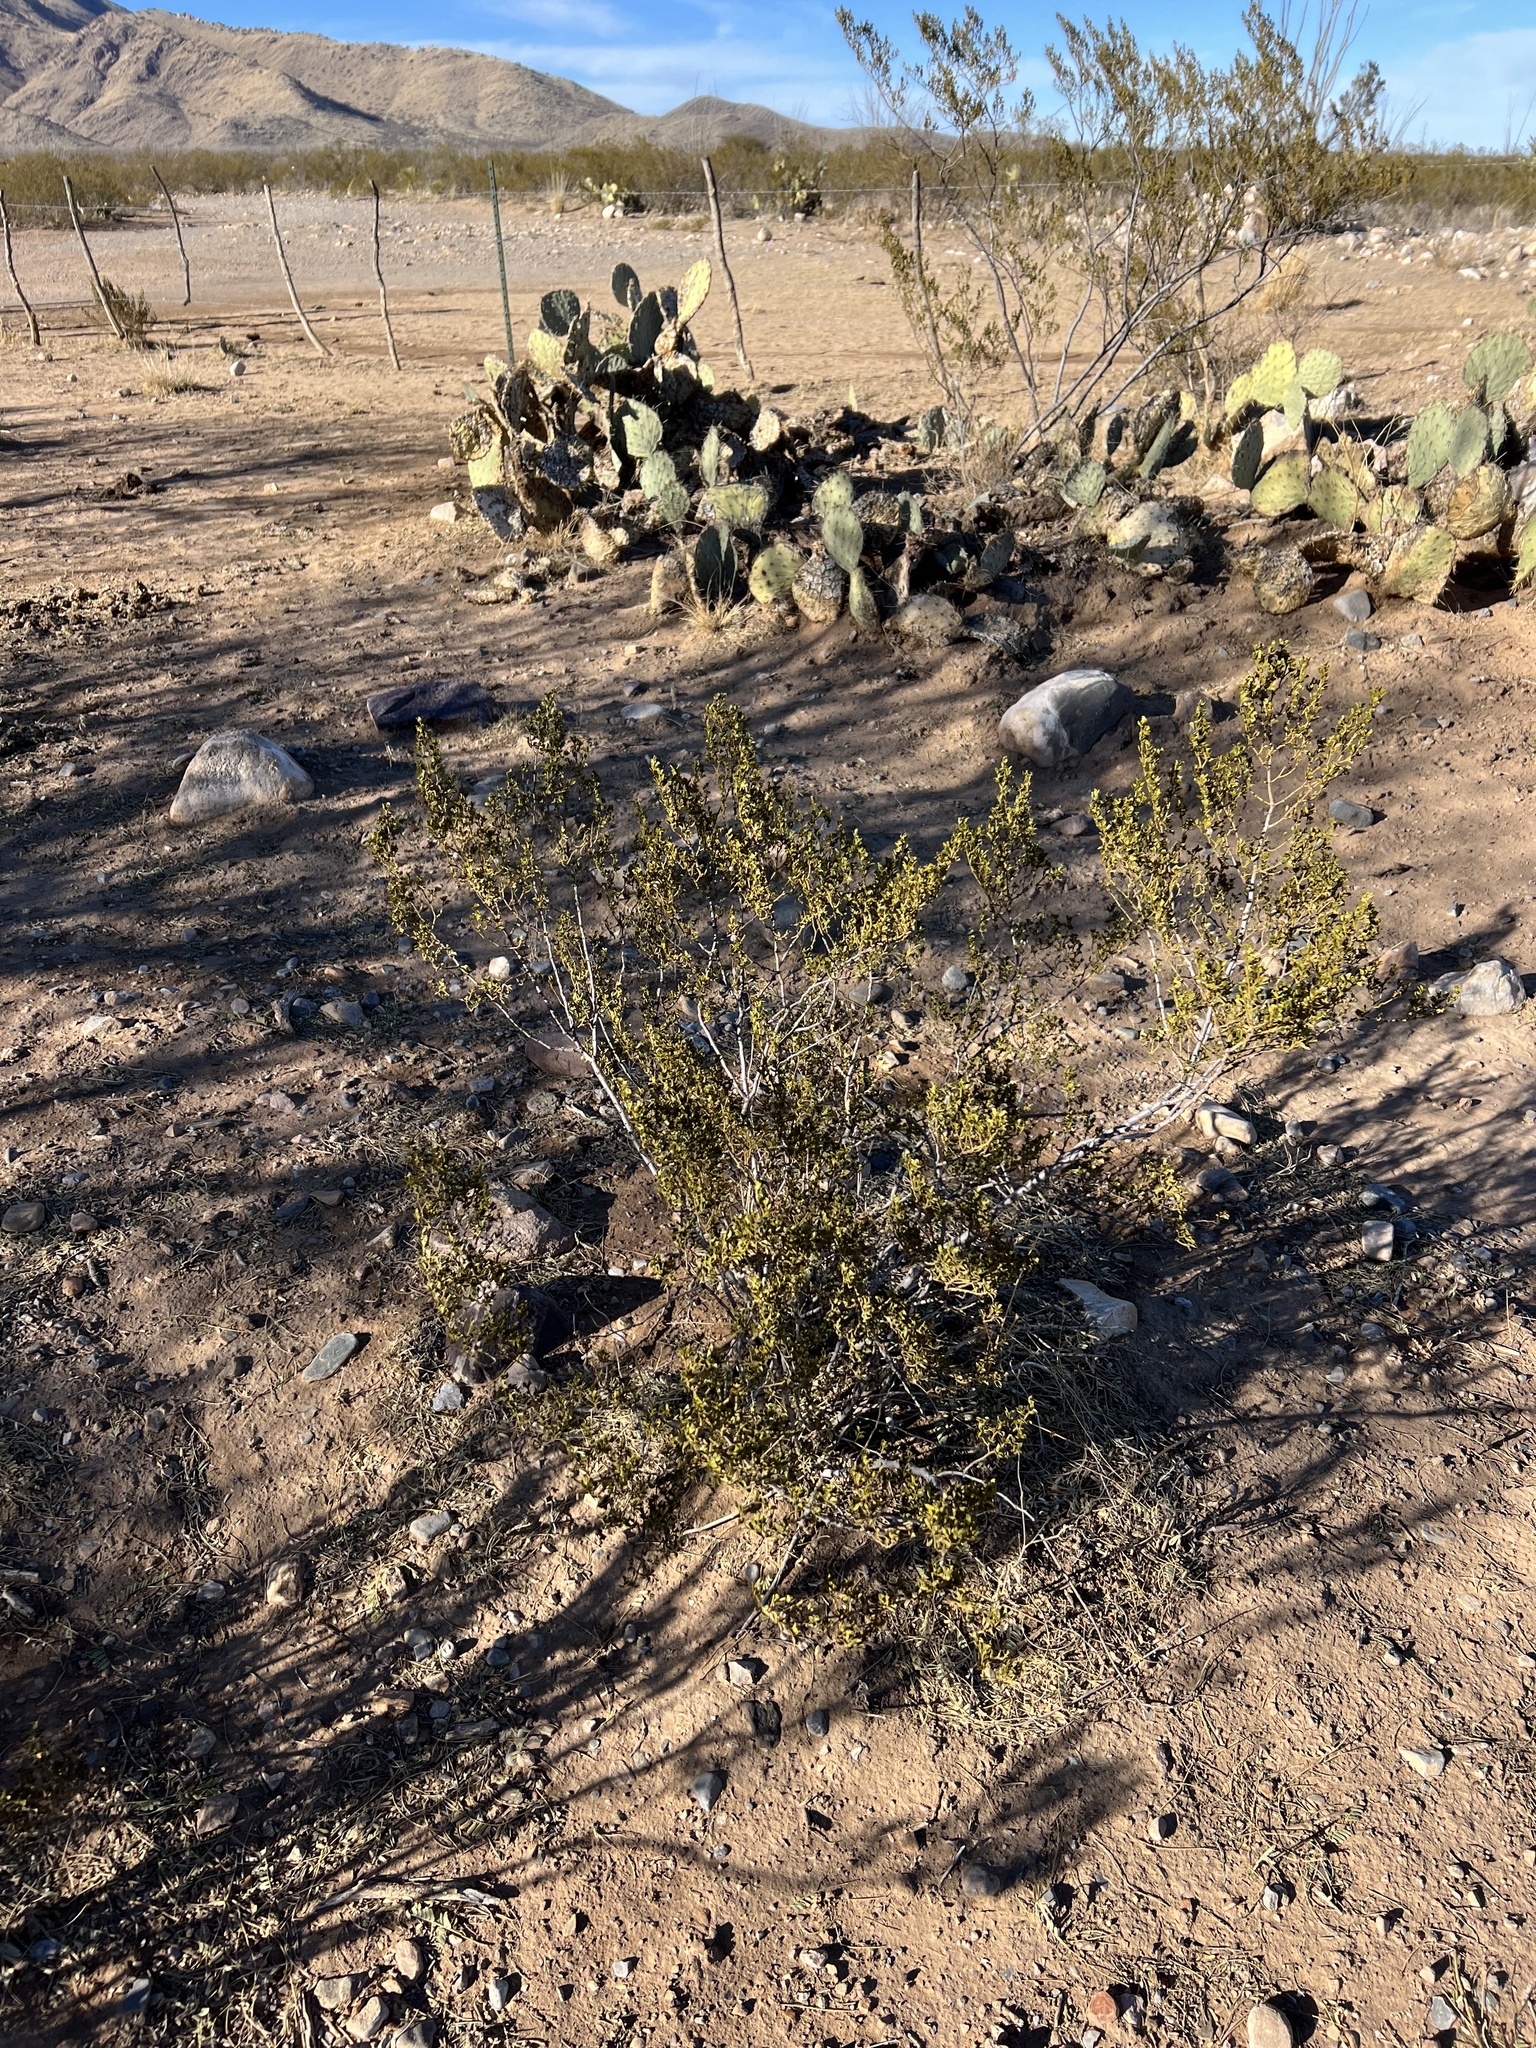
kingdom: Plantae
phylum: Tracheophyta
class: Magnoliopsida
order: Zygophyllales
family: Zygophyllaceae
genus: Larrea
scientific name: Larrea tridentata
